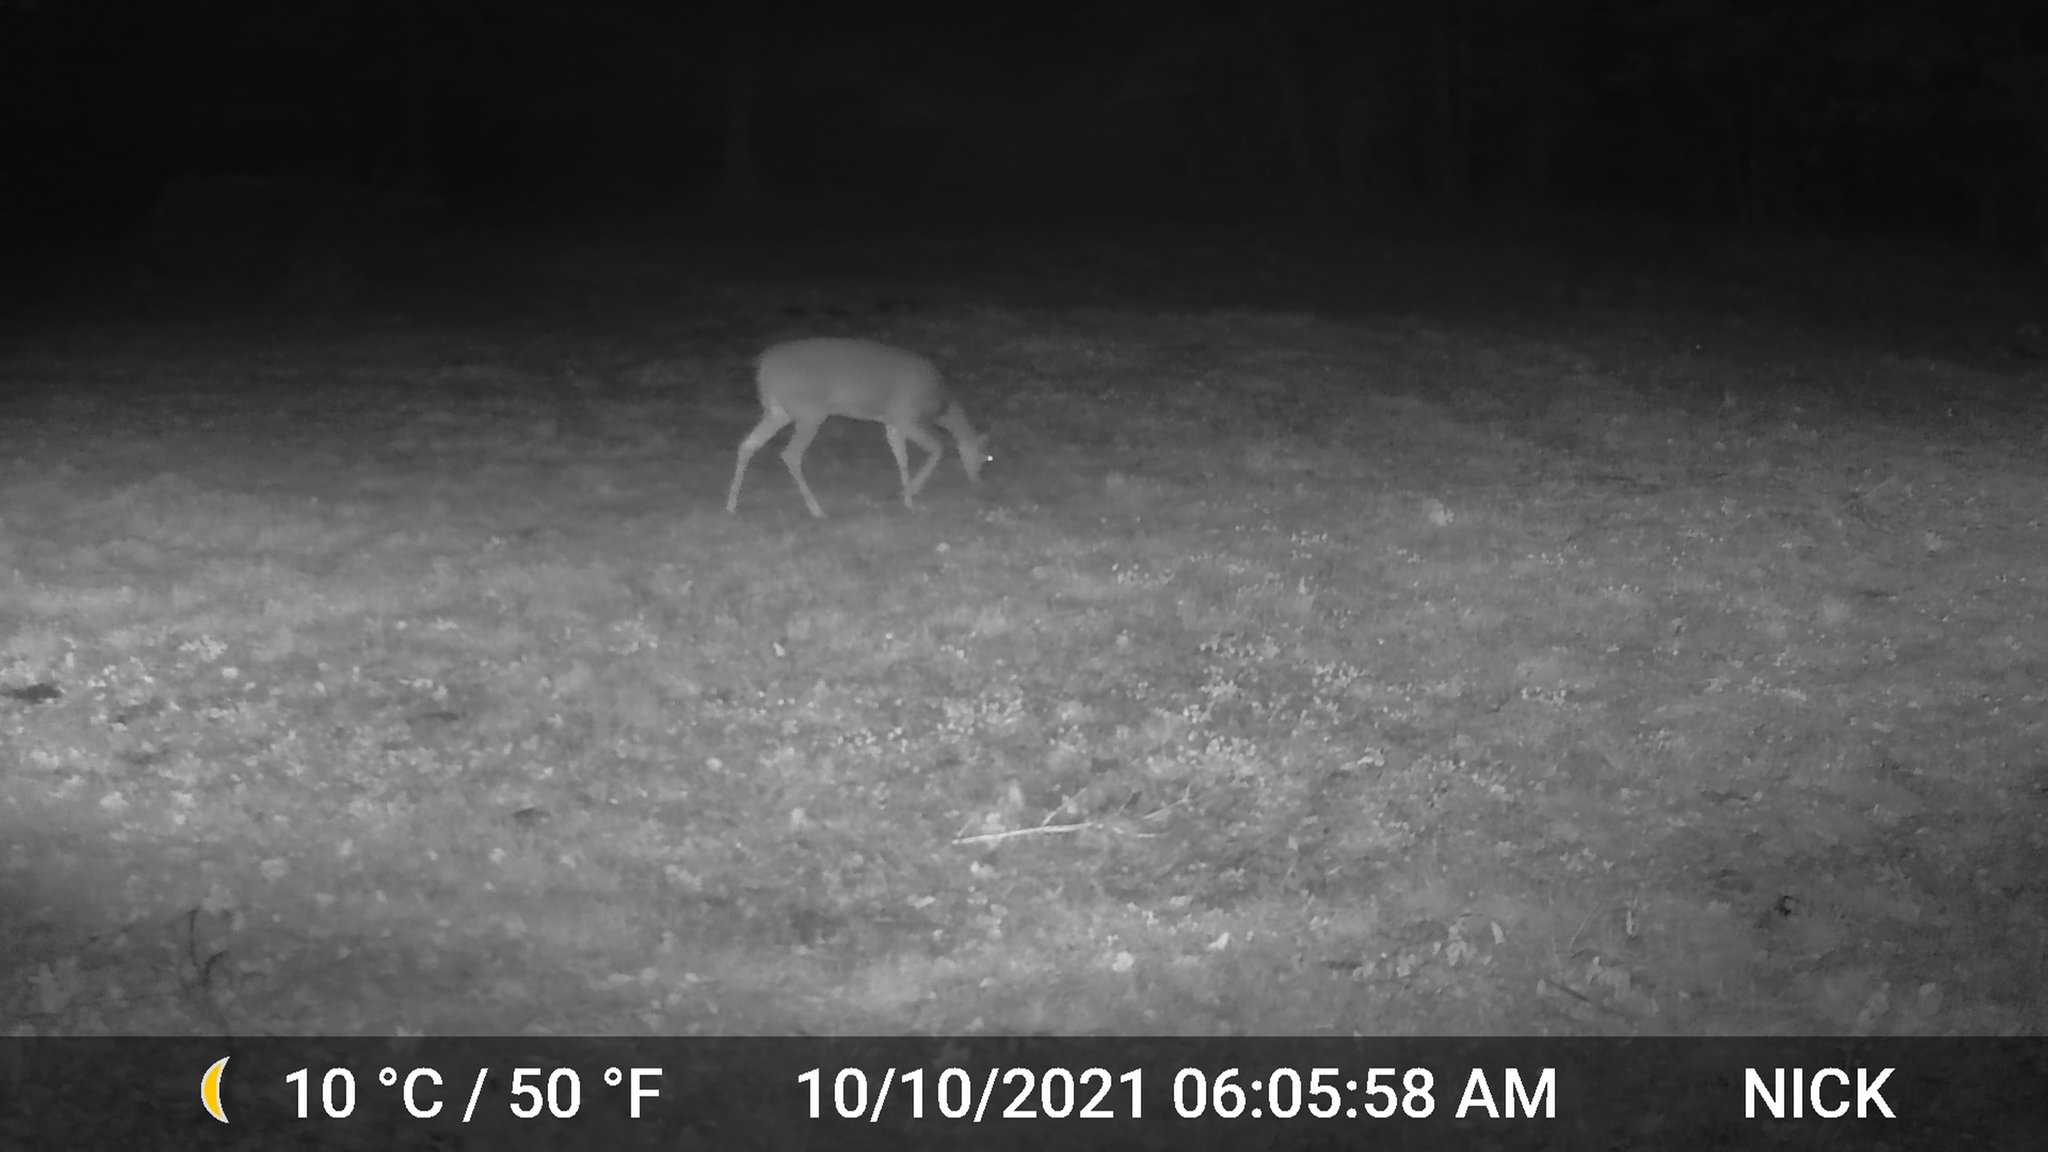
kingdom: Animalia
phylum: Chordata
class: Mammalia
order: Artiodactyla
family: Cervidae
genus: Odocoileus
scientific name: Odocoileus virginianus
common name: White-tailed deer
